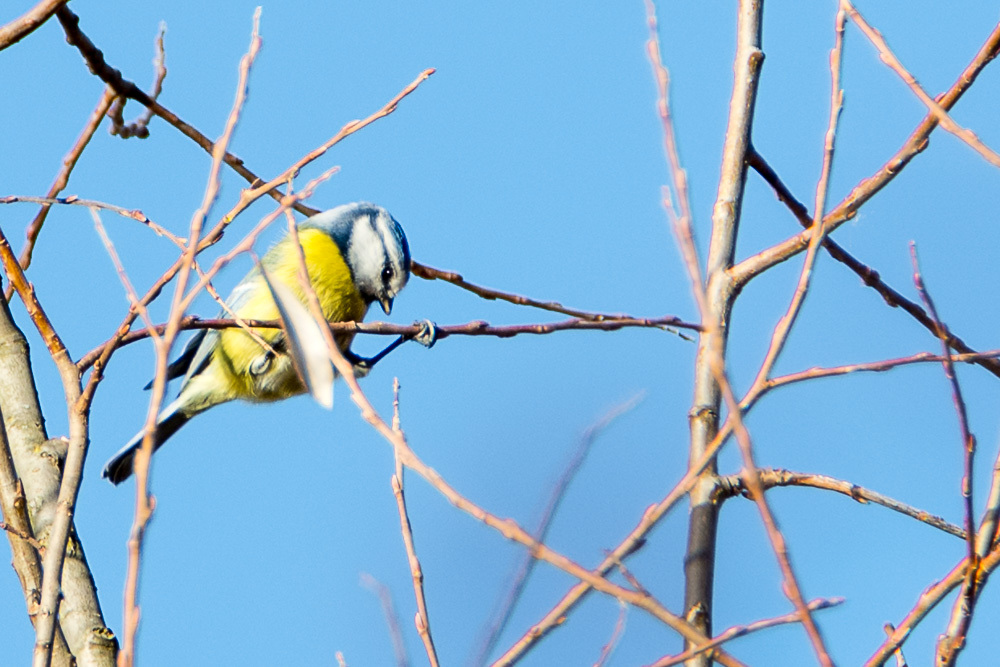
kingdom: Animalia
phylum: Chordata
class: Aves
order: Passeriformes
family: Paridae
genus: Cyanistes
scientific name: Cyanistes caeruleus
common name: Eurasian blue tit
